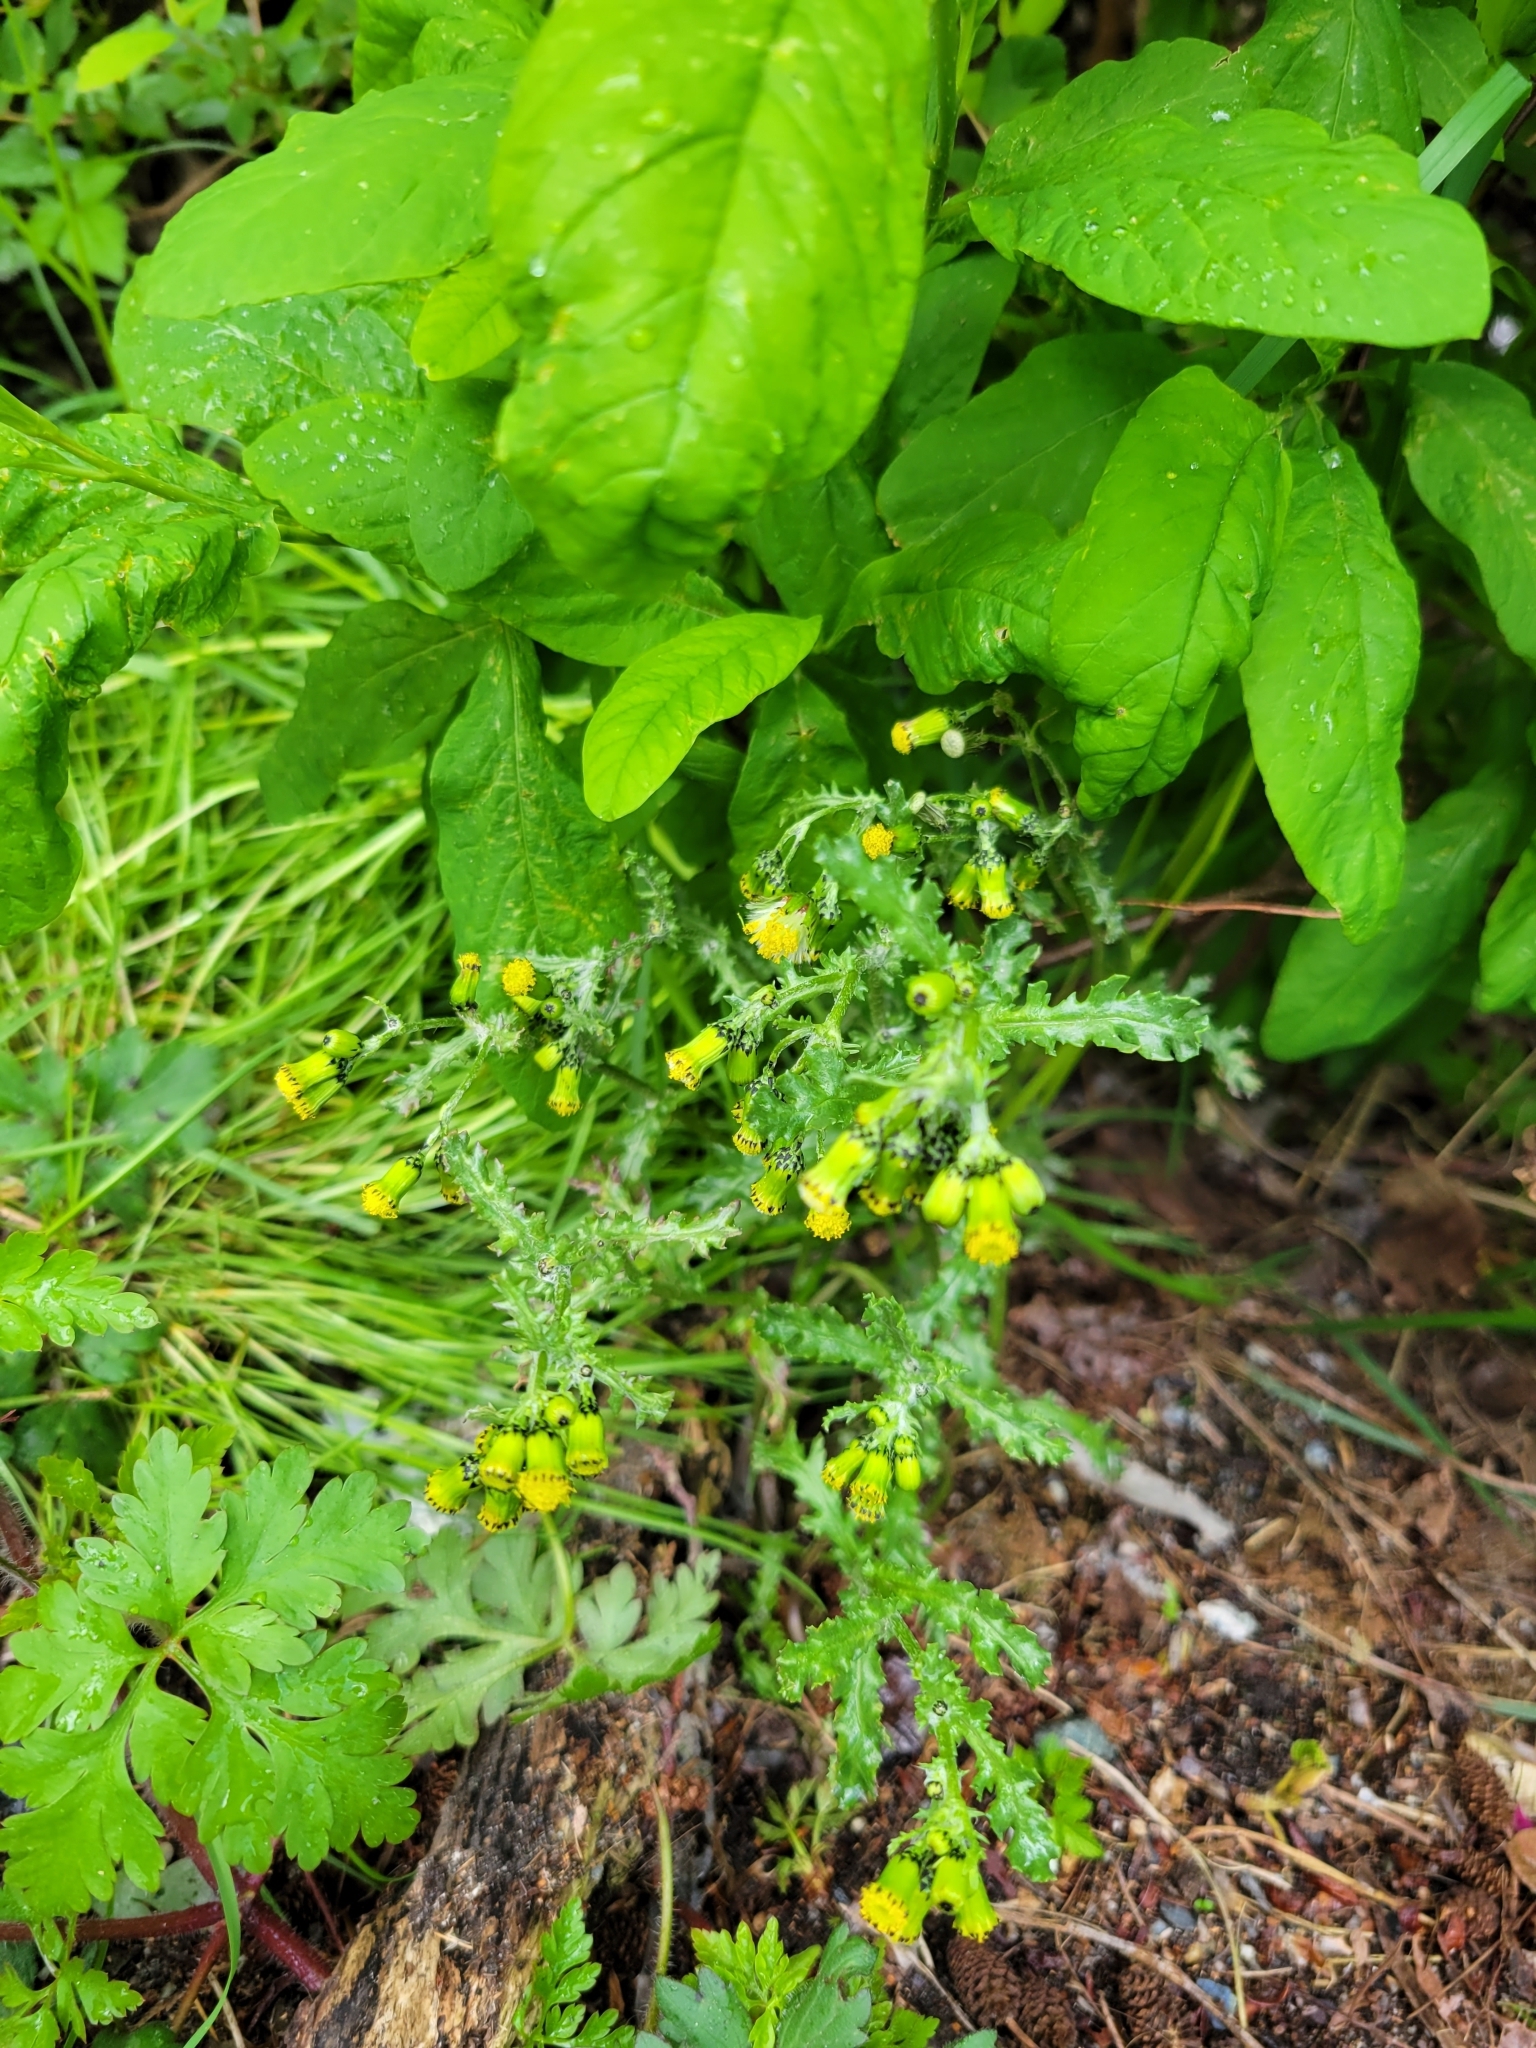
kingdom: Plantae
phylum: Tracheophyta
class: Magnoliopsida
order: Asterales
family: Asteraceae
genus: Senecio
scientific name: Senecio vulgaris
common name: Old-man-in-the-spring
